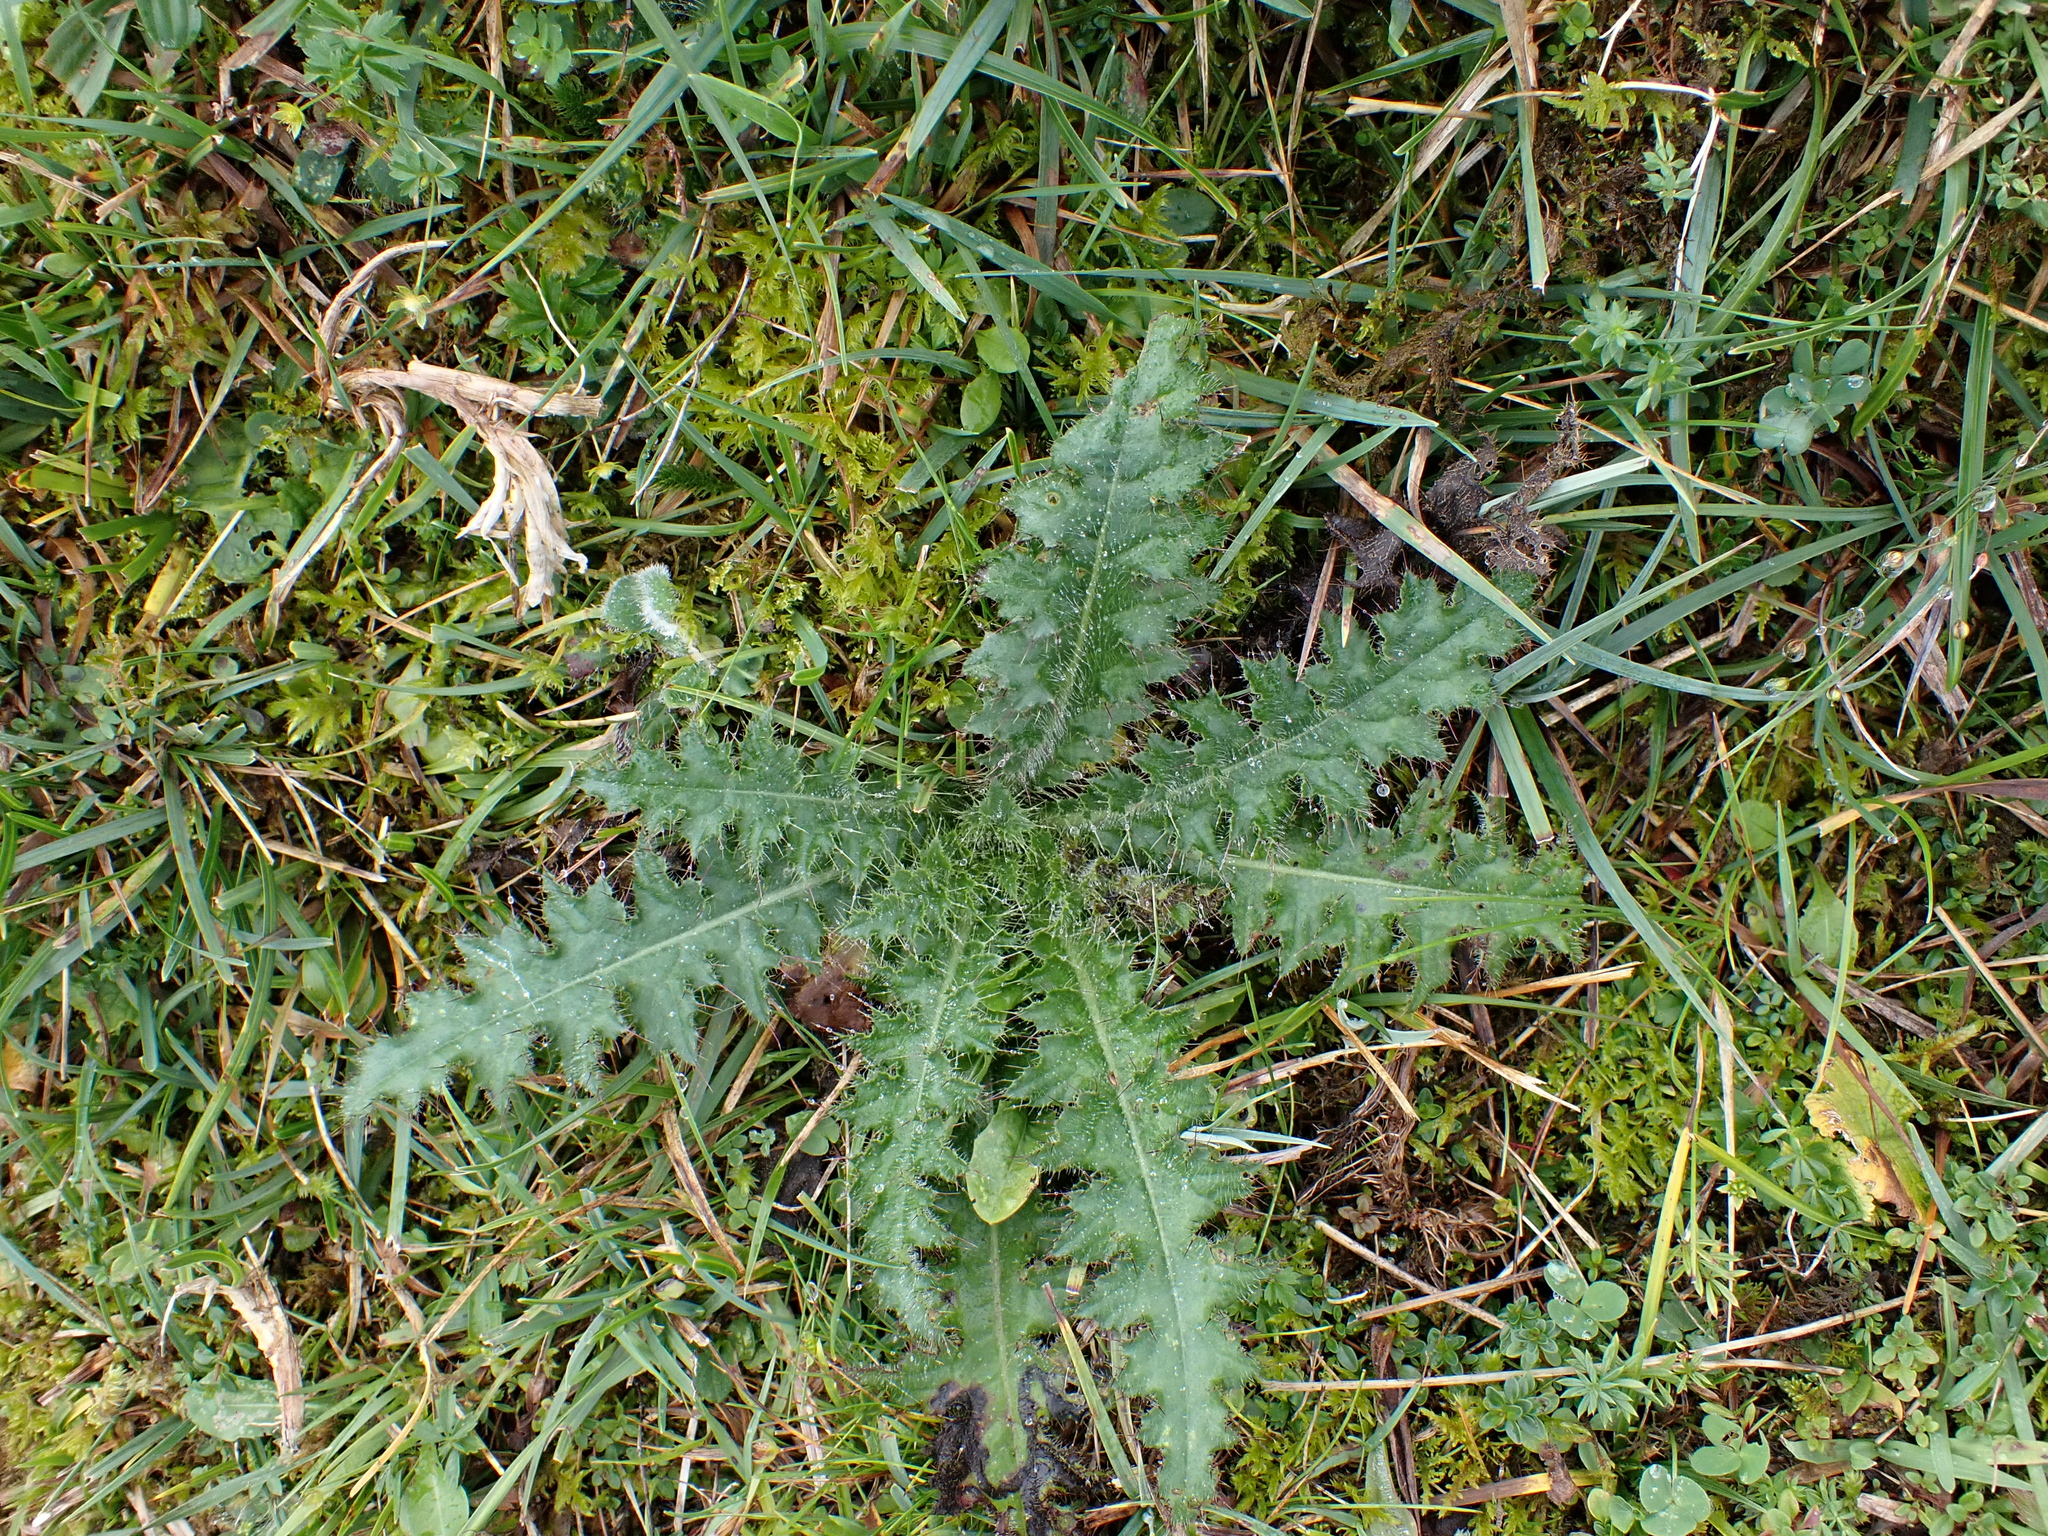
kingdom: Plantae
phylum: Tracheophyta
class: Magnoliopsida
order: Asterales
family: Asteraceae
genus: Cirsium
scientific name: Cirsium palustre
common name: Marsh thistle
